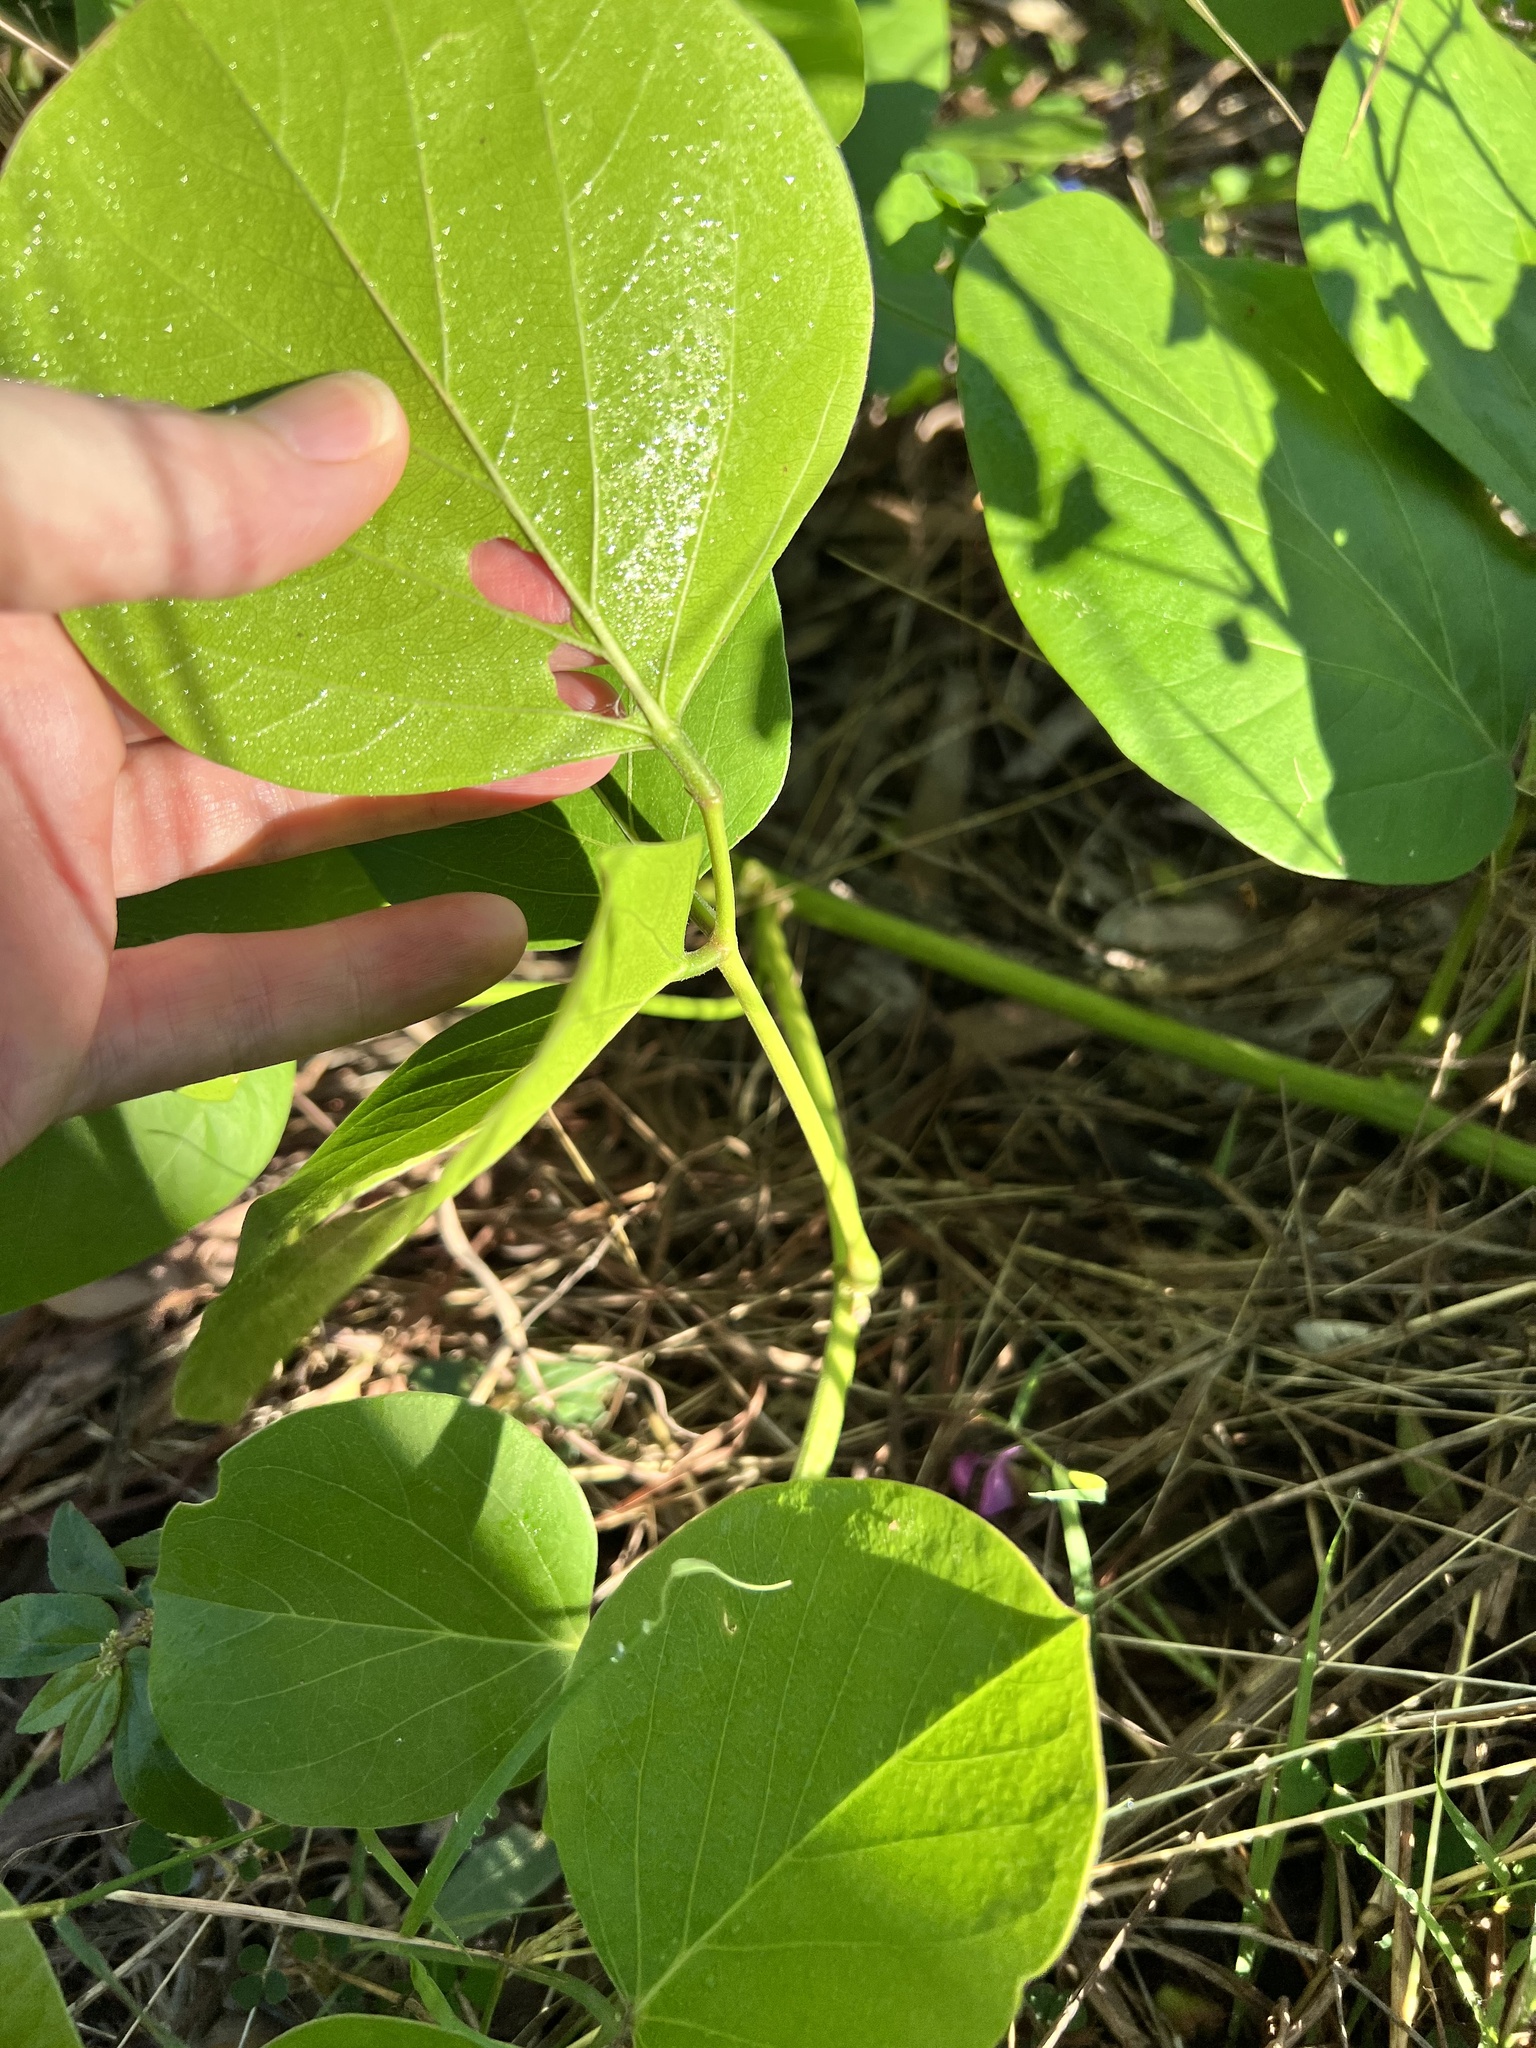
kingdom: Plantae
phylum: Tracheophyta
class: Magnoliopsida
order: Fabales
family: Fabaceae
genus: Canavalia
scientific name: Canavalia rosea
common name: Beach-bean
